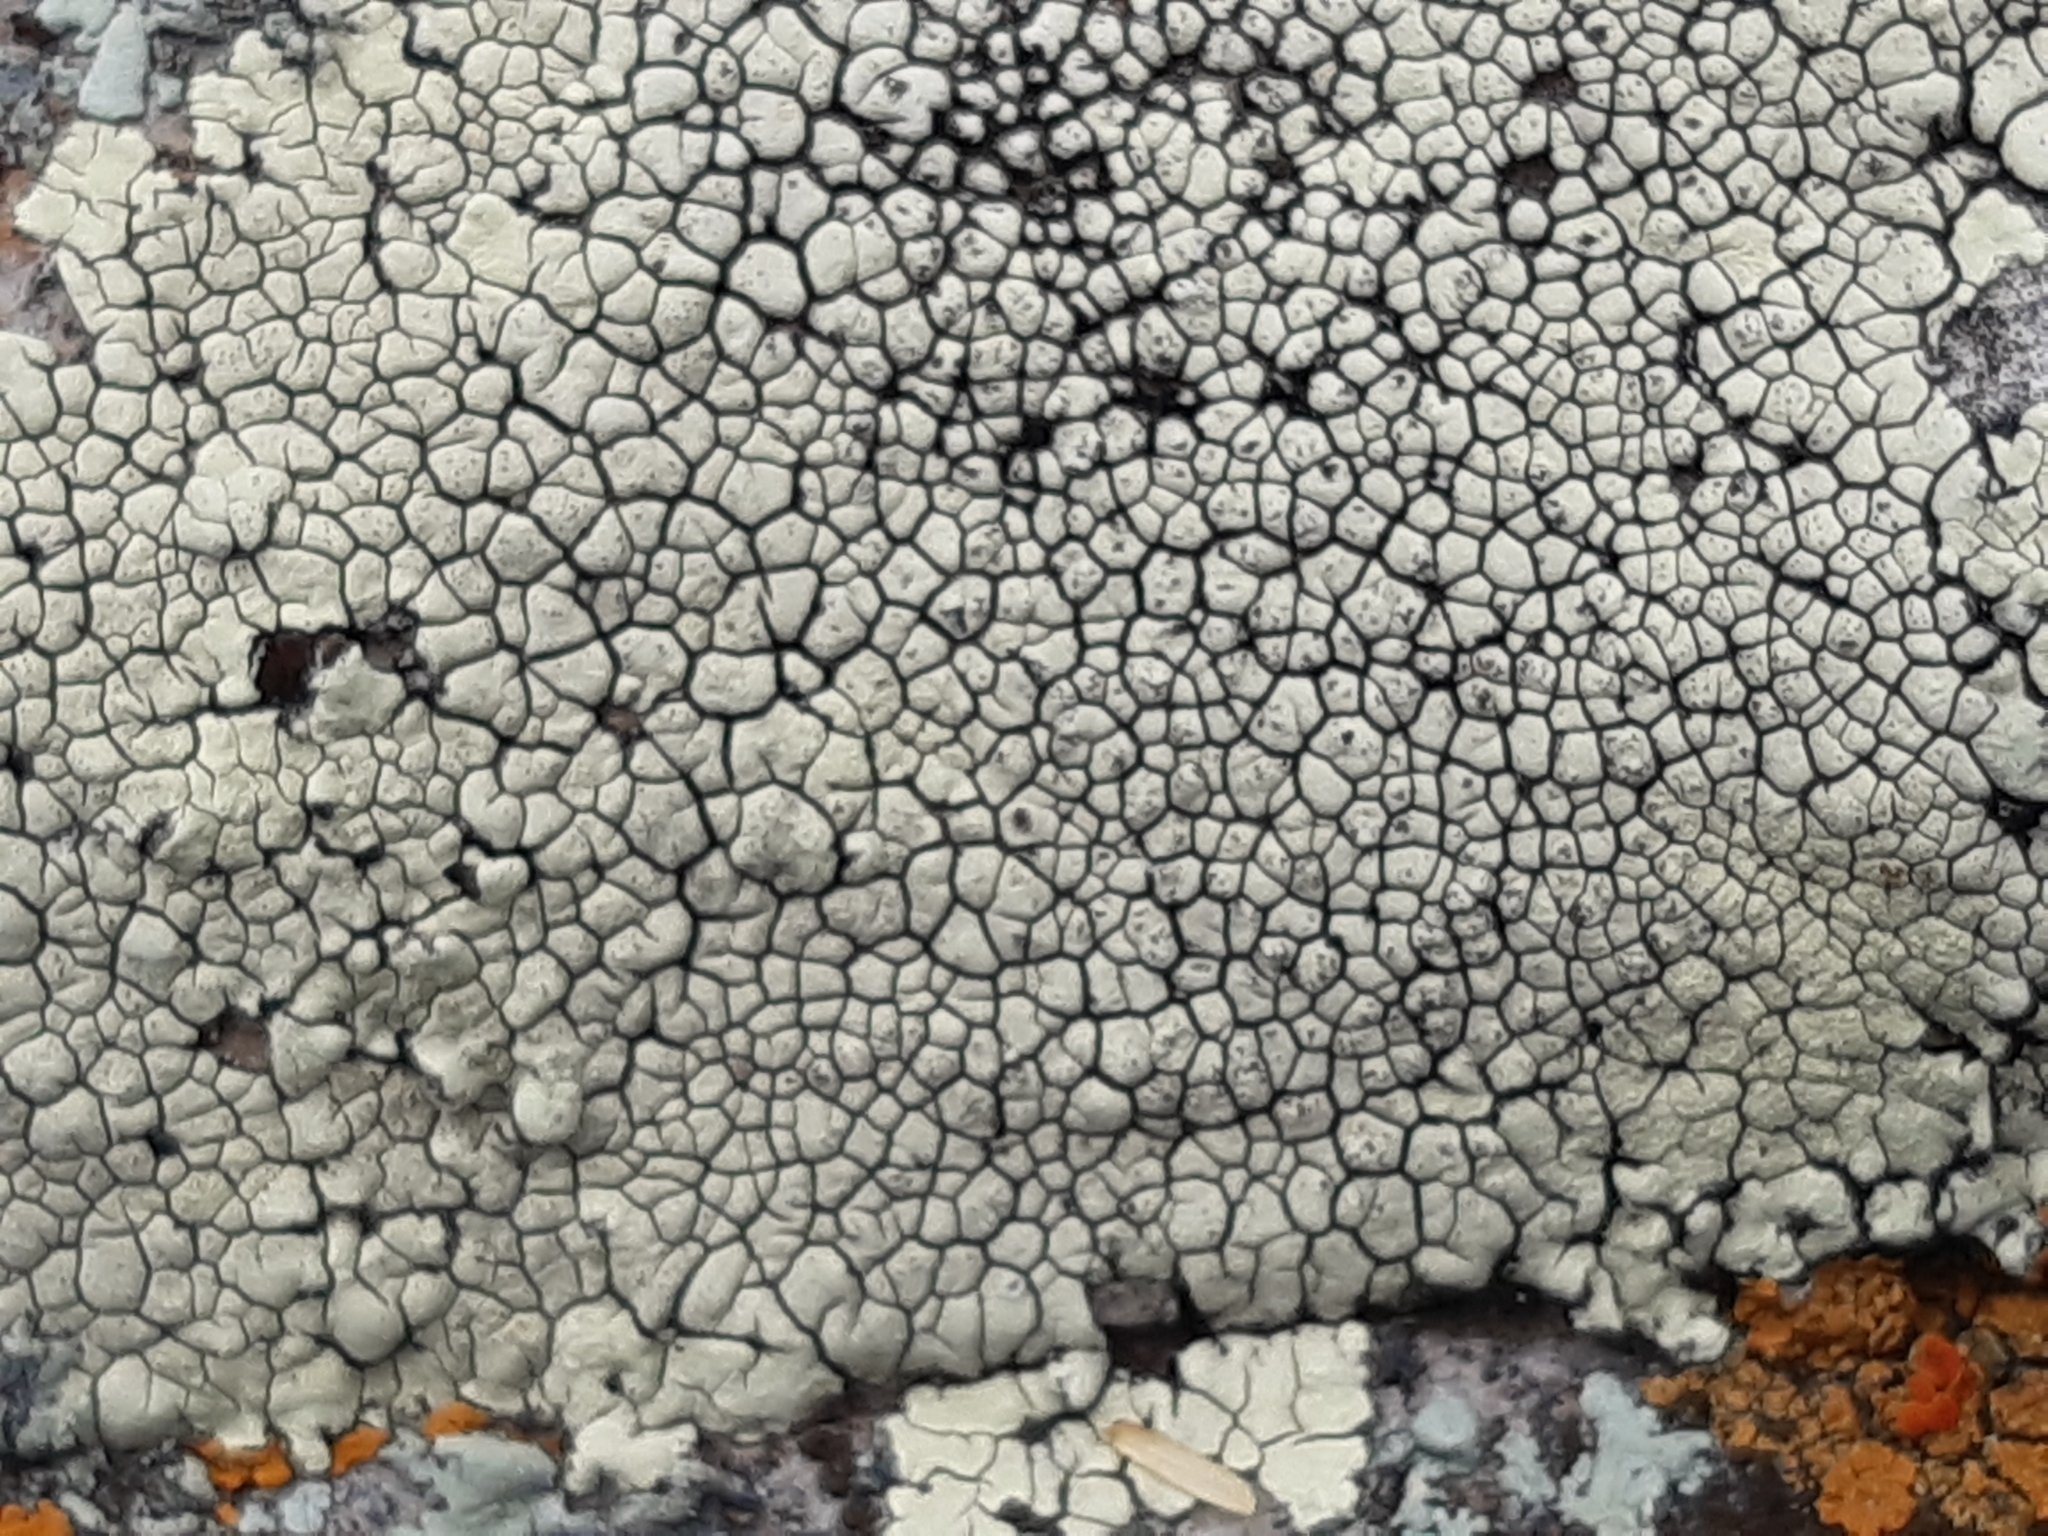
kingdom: Fungi
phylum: Ascomycota
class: Lecanoromycetes
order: Caliciales
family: Caliciaceae
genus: Dimelaena
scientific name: Dimelaena radiata
